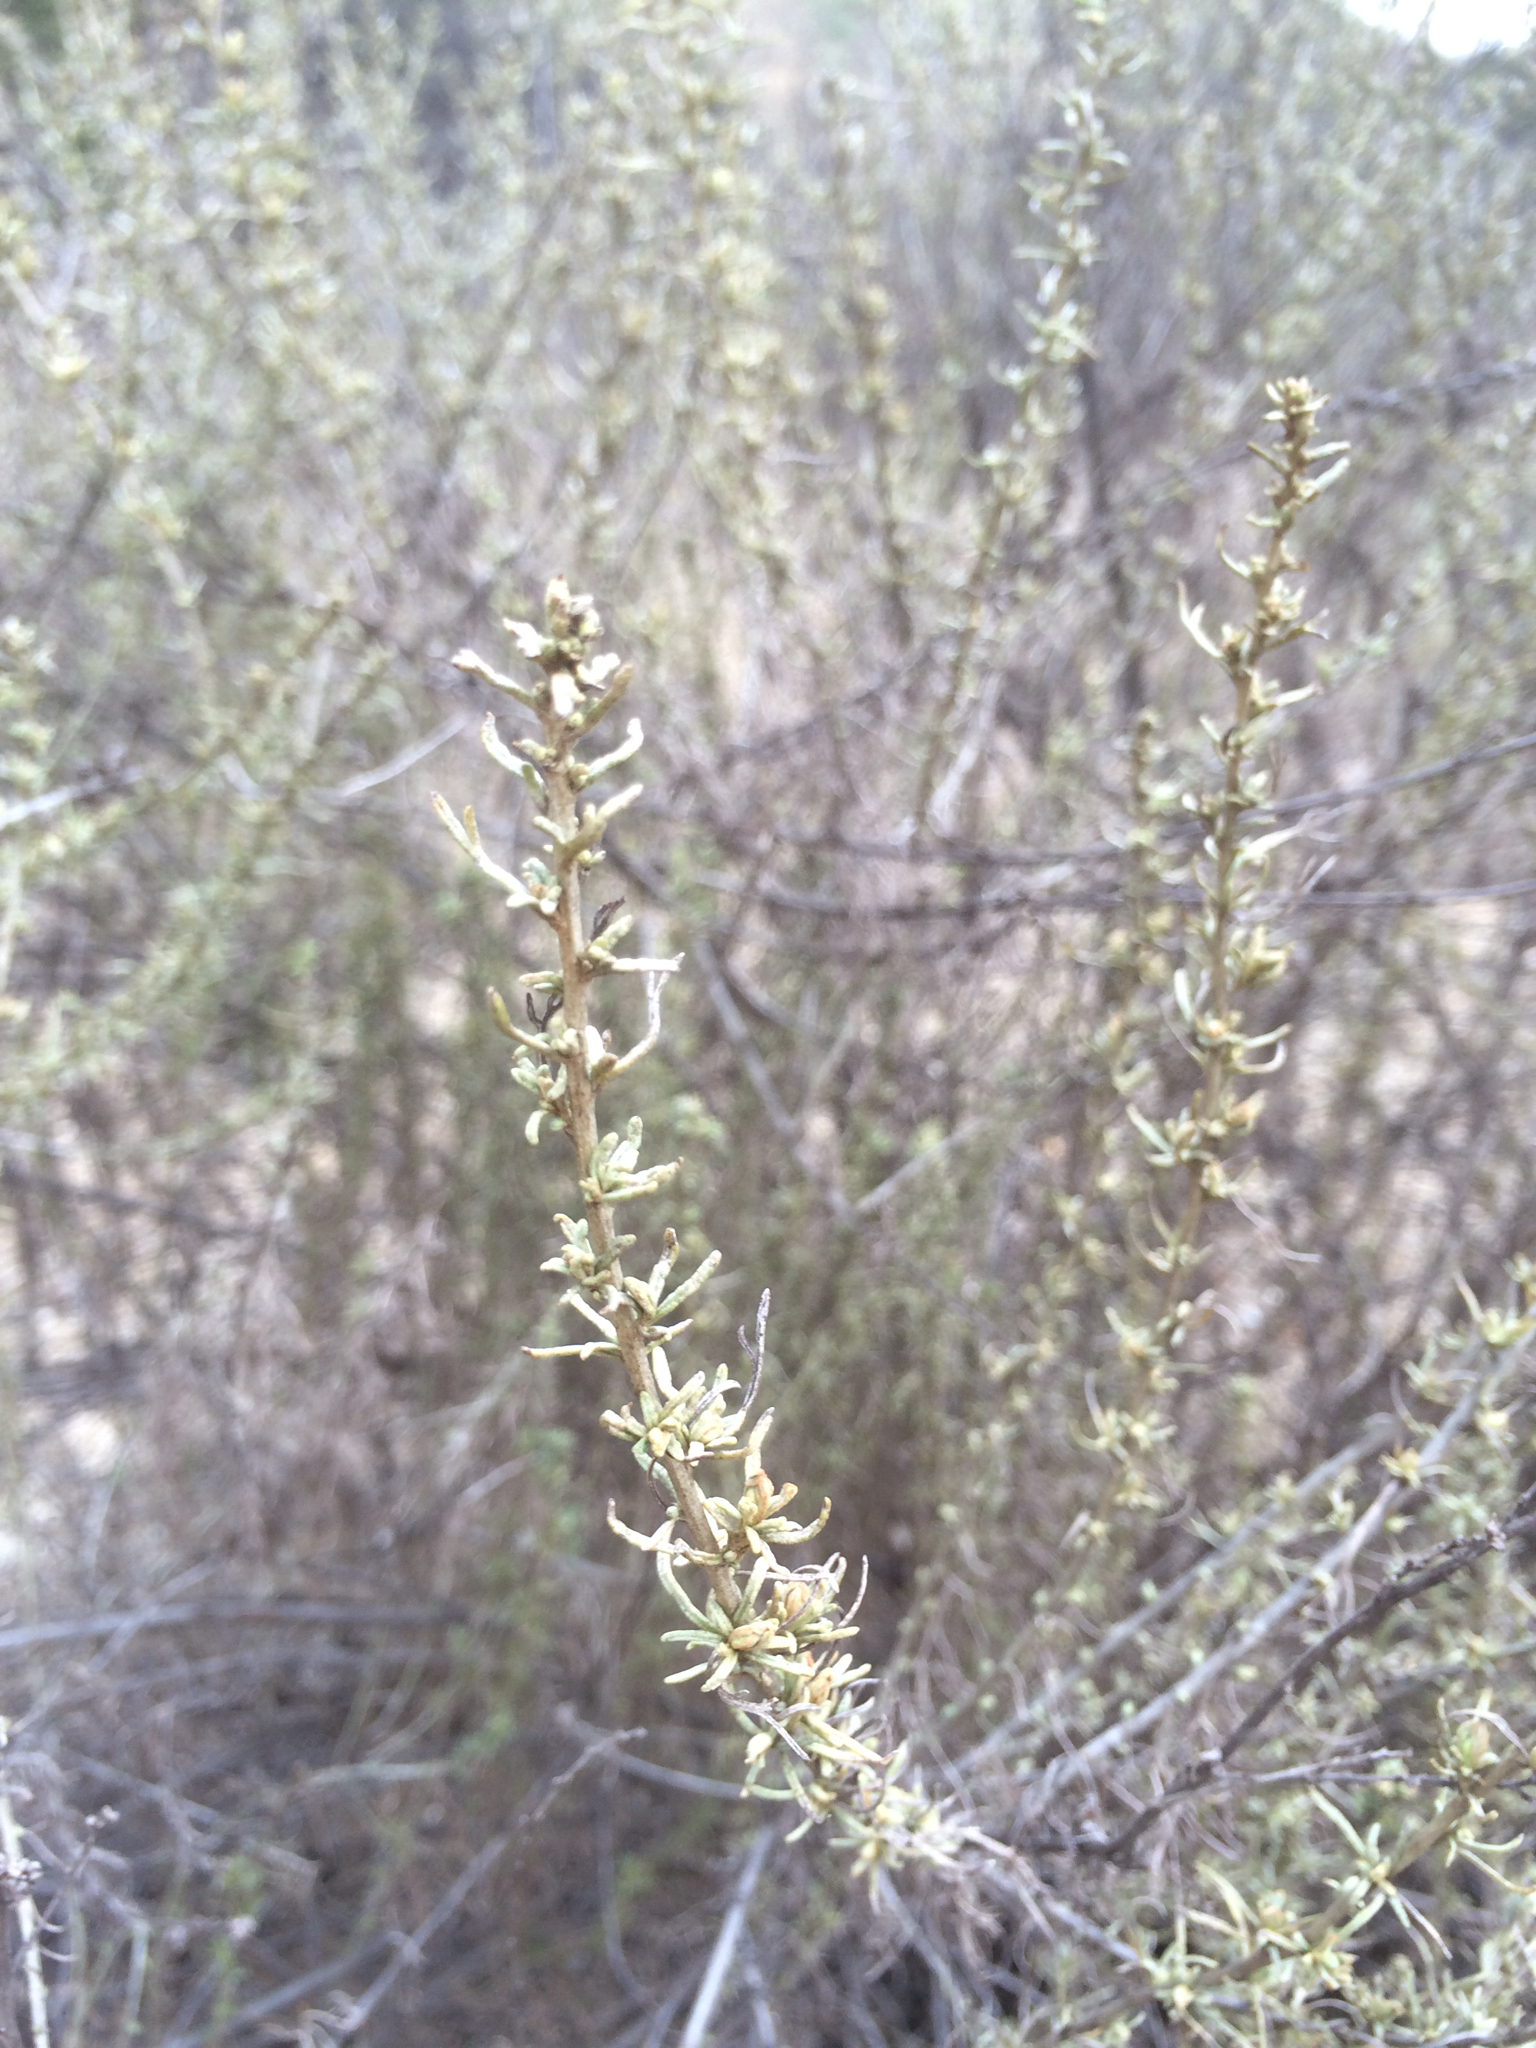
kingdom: Plantae
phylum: Tracheophyta
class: Magnoliopsida
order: Asterales
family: Asteraceae
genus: Artemisia
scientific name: Artemisia californica
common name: California sagebrush
